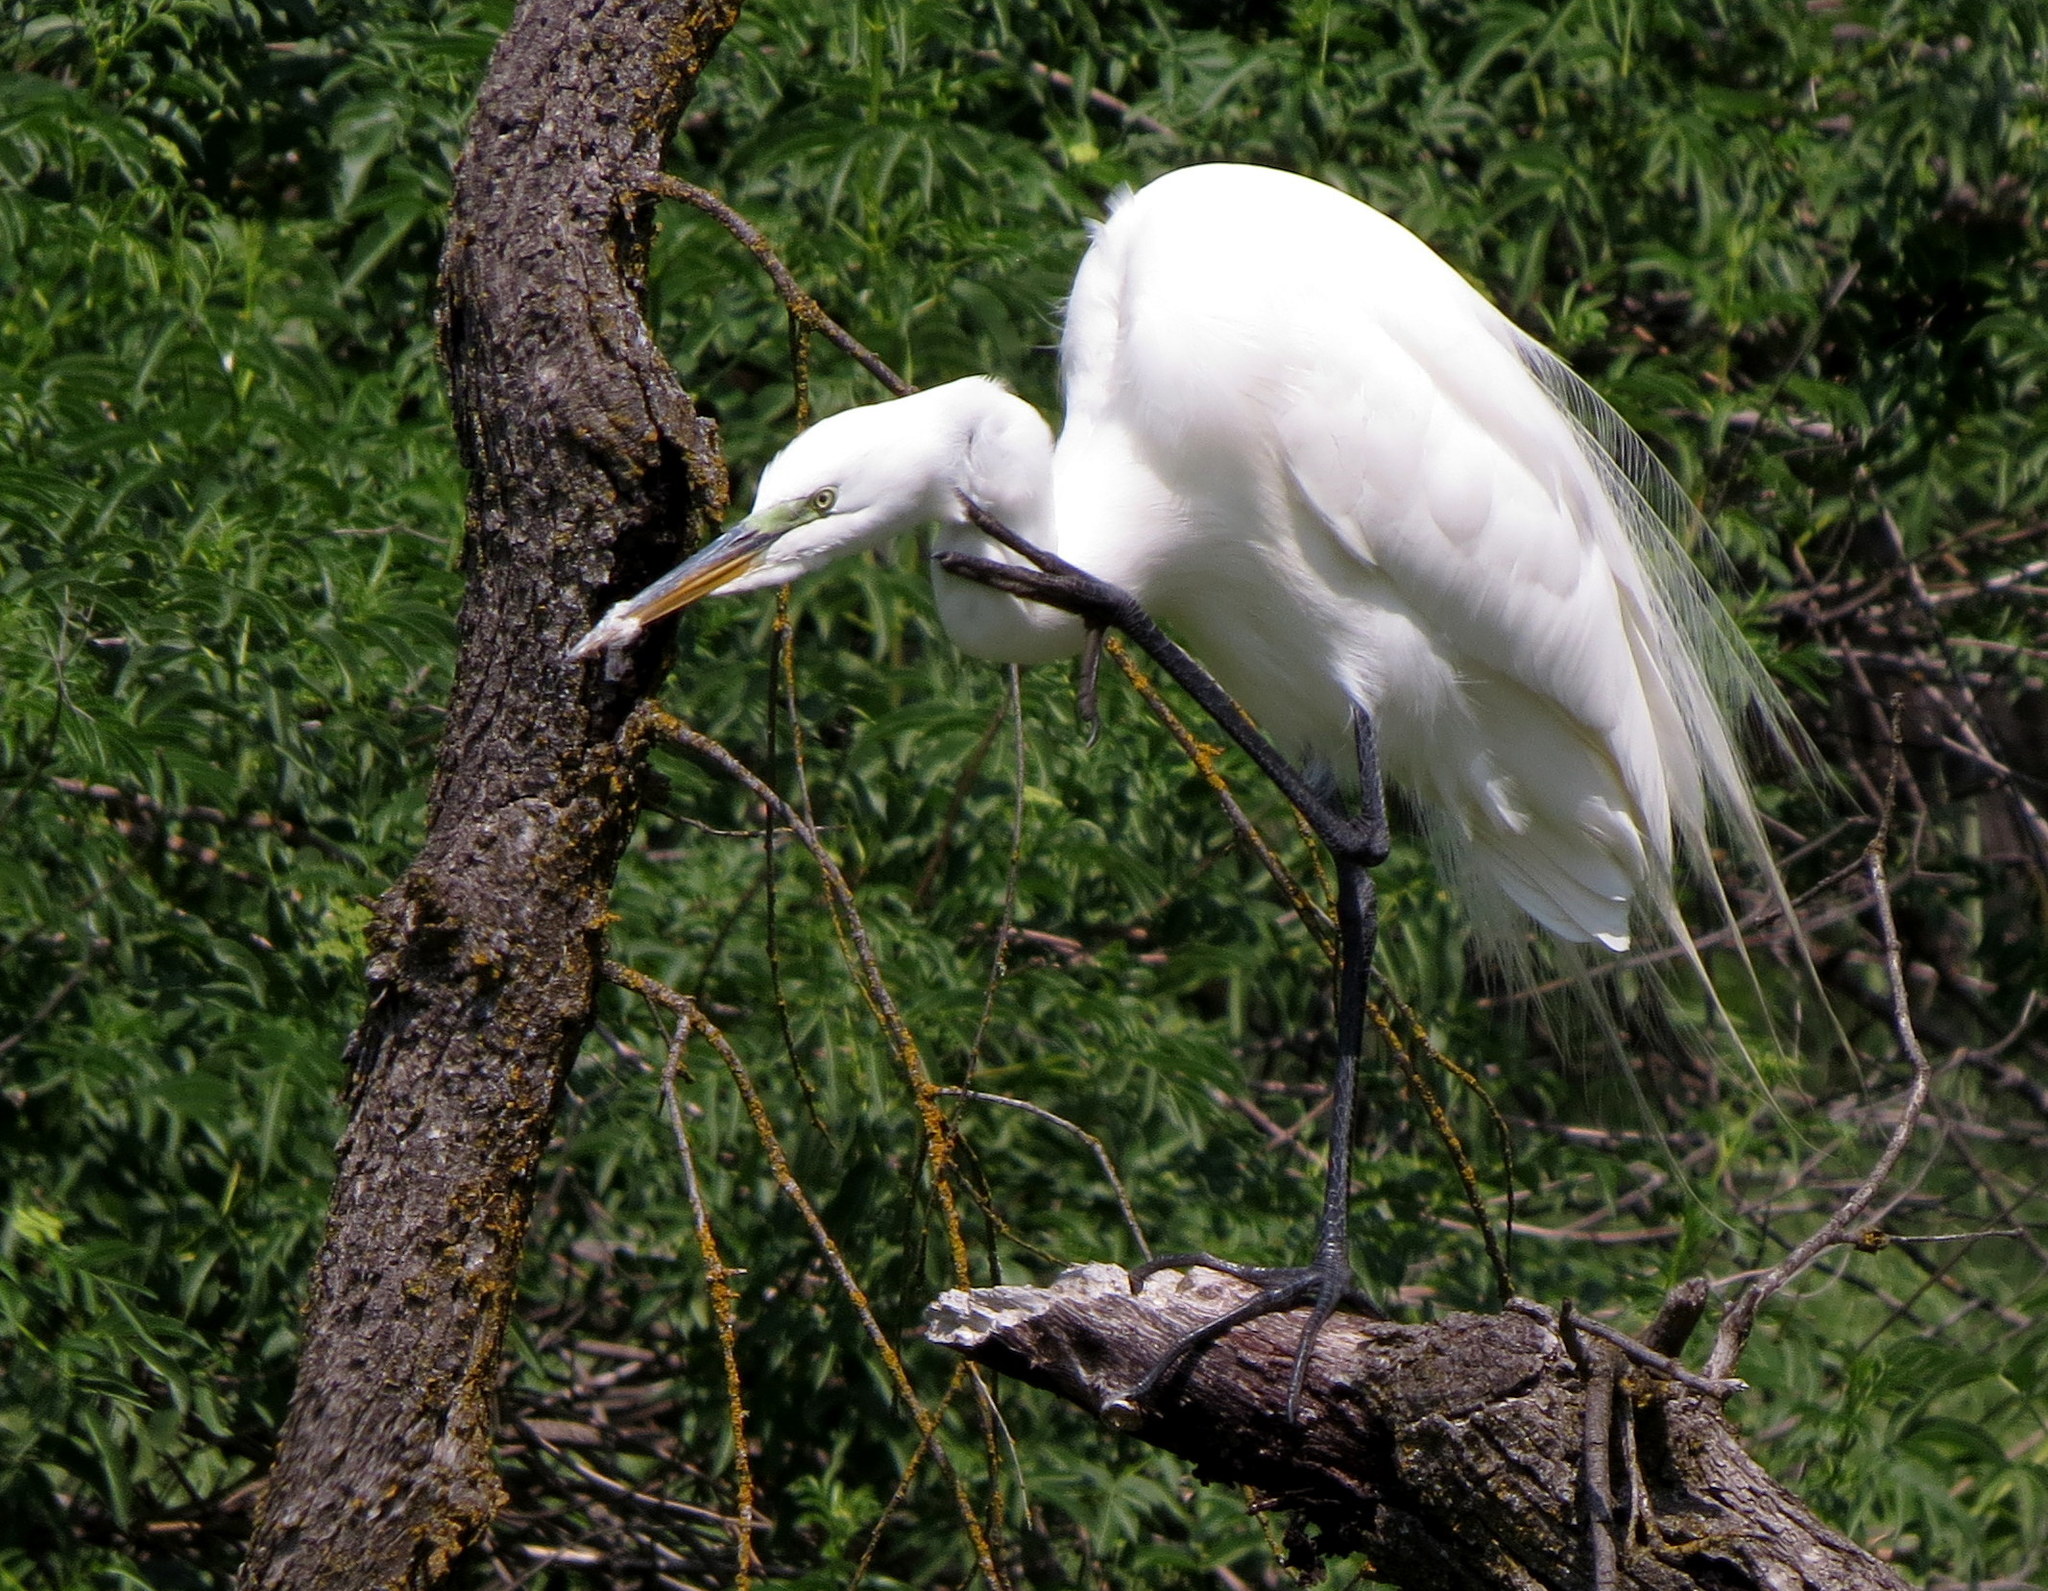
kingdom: Animalia
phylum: Chordata
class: Aves
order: Pelecaniformes
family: Ardeidae
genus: Ardea
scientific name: Ardea alba
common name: Great egret
